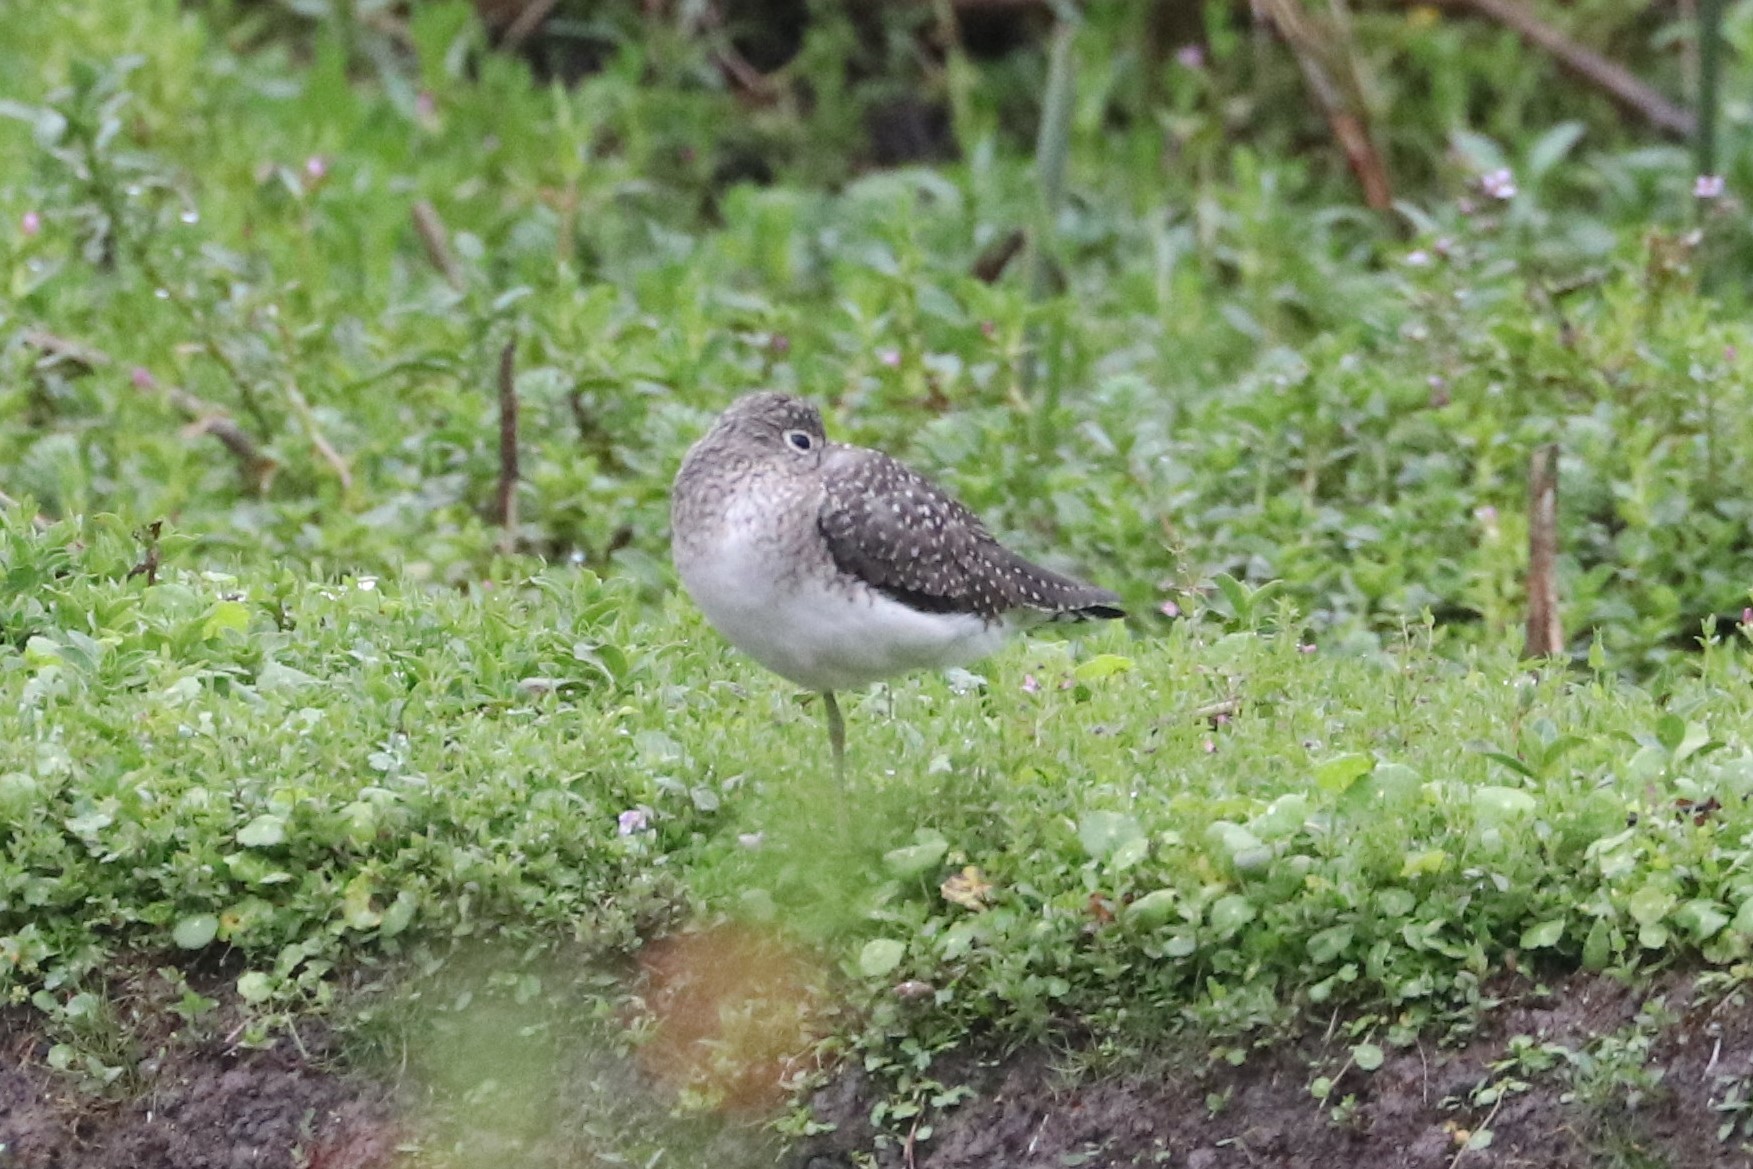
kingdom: Animalia
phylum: Chordata
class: Aves
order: Charadriiformes
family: Scolopacidae
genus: Tringa
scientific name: Tringa solitaria
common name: Solitary sandpiper
